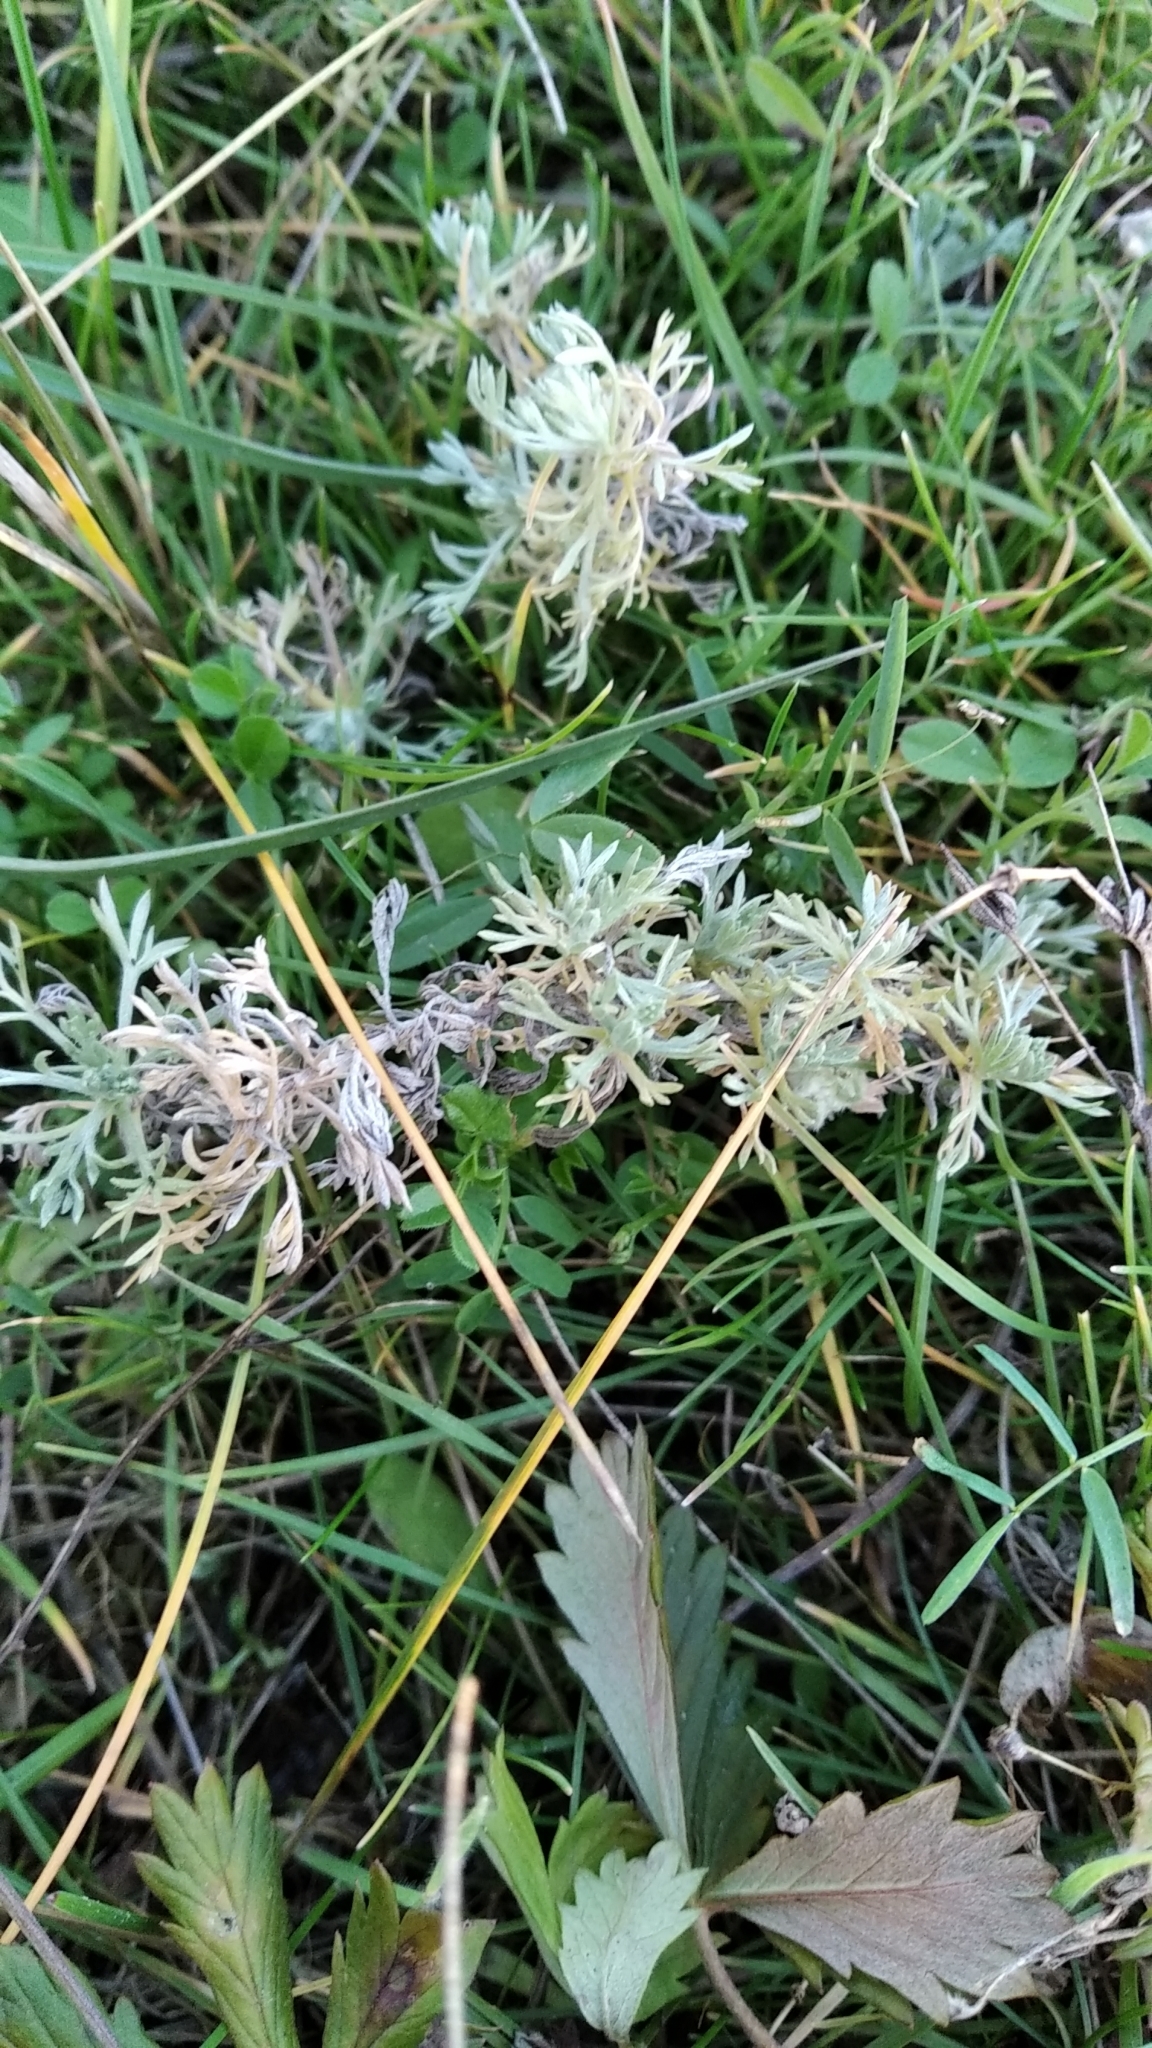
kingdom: Plantae
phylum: Tracheophyta
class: Magnoliopsida
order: Asterales
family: Asteraceae
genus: Artemisia
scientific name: Artemisia austriaca
